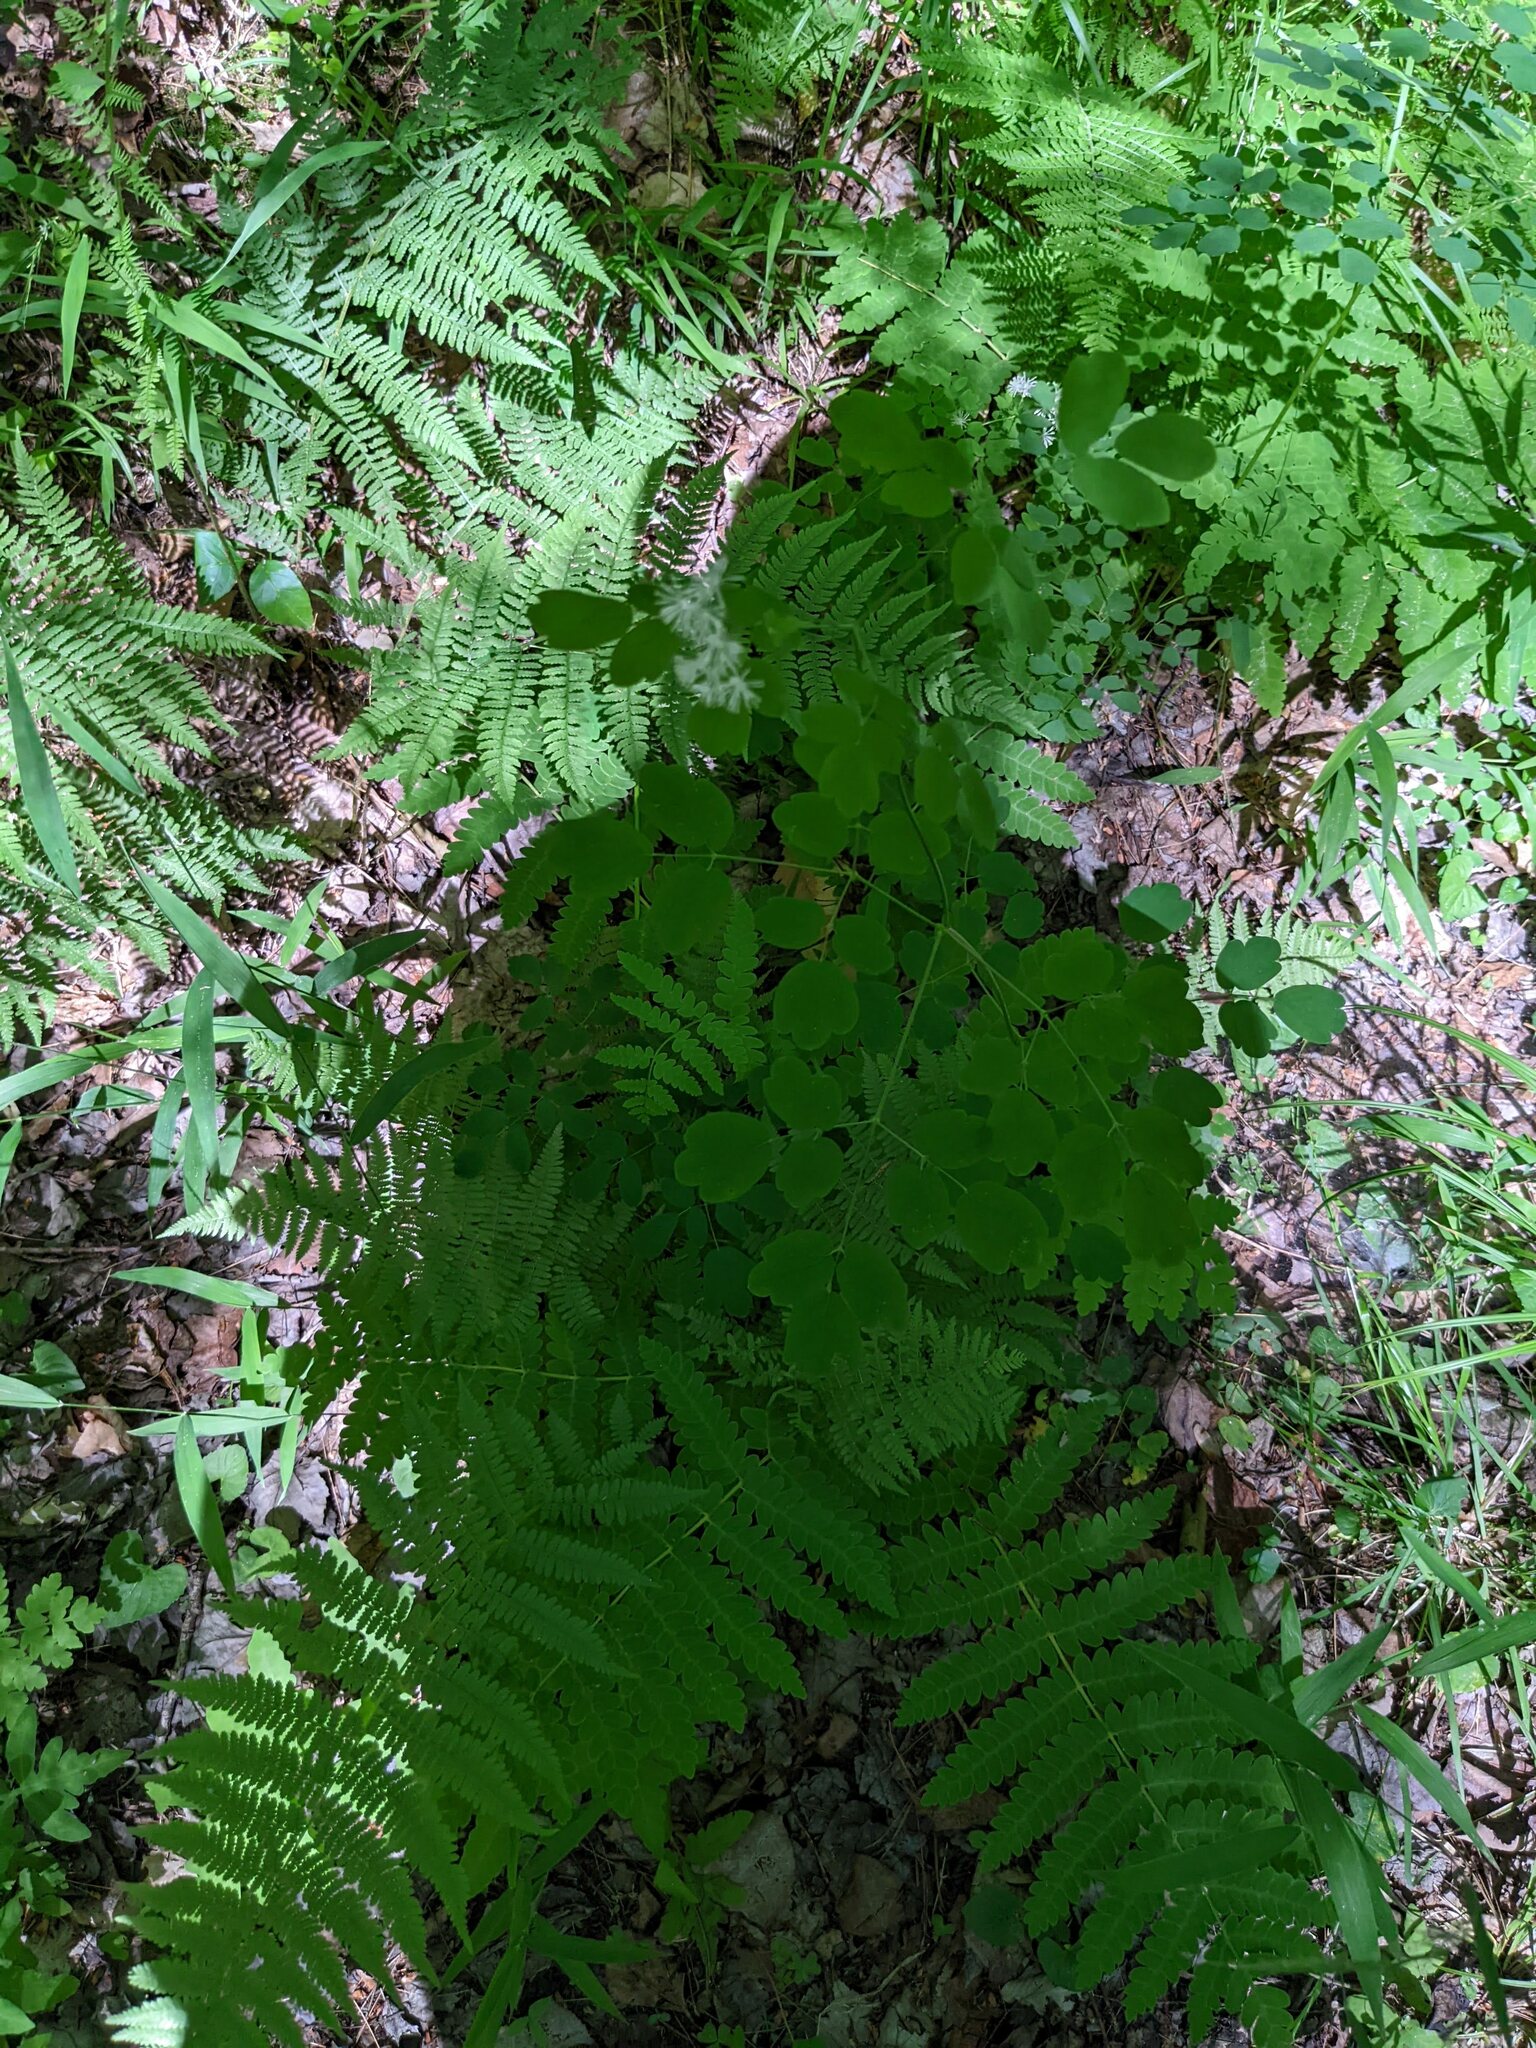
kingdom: Plantae
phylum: Tracheophyta
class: Magnoliopsida
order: Ranunculales
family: Ranunculaceae
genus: Thalictrum
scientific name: Thalictrum pubescens
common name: King-of-the-meadow
